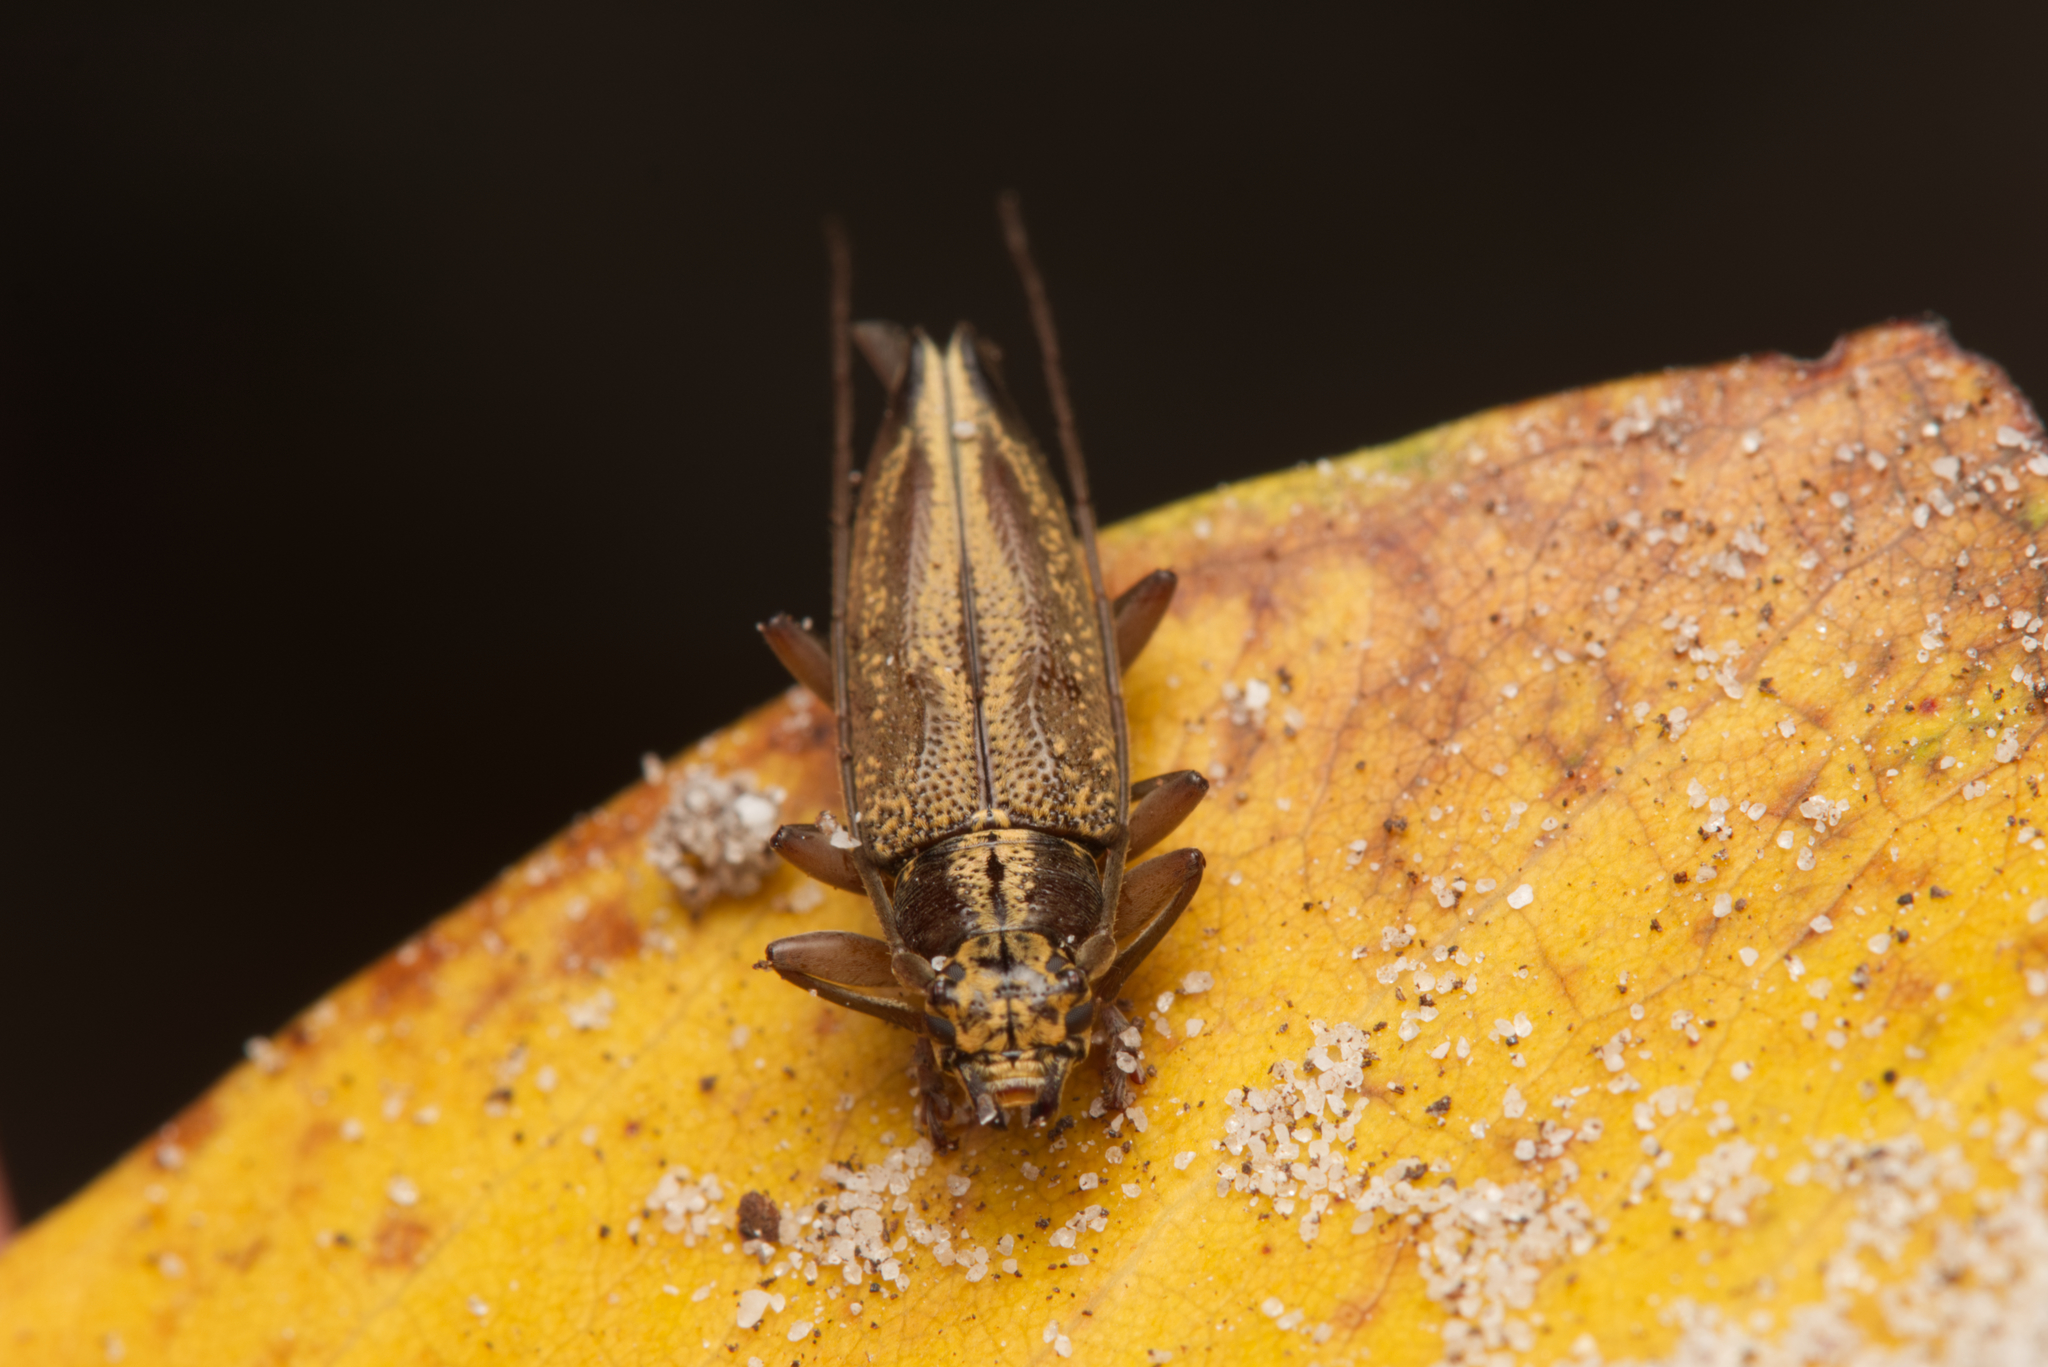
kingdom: Animalia
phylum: Arthropoda
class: Insecta
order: Coleoptera
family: Cerambycidae
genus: Temnosternus
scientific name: Temnosternus planiusculus
